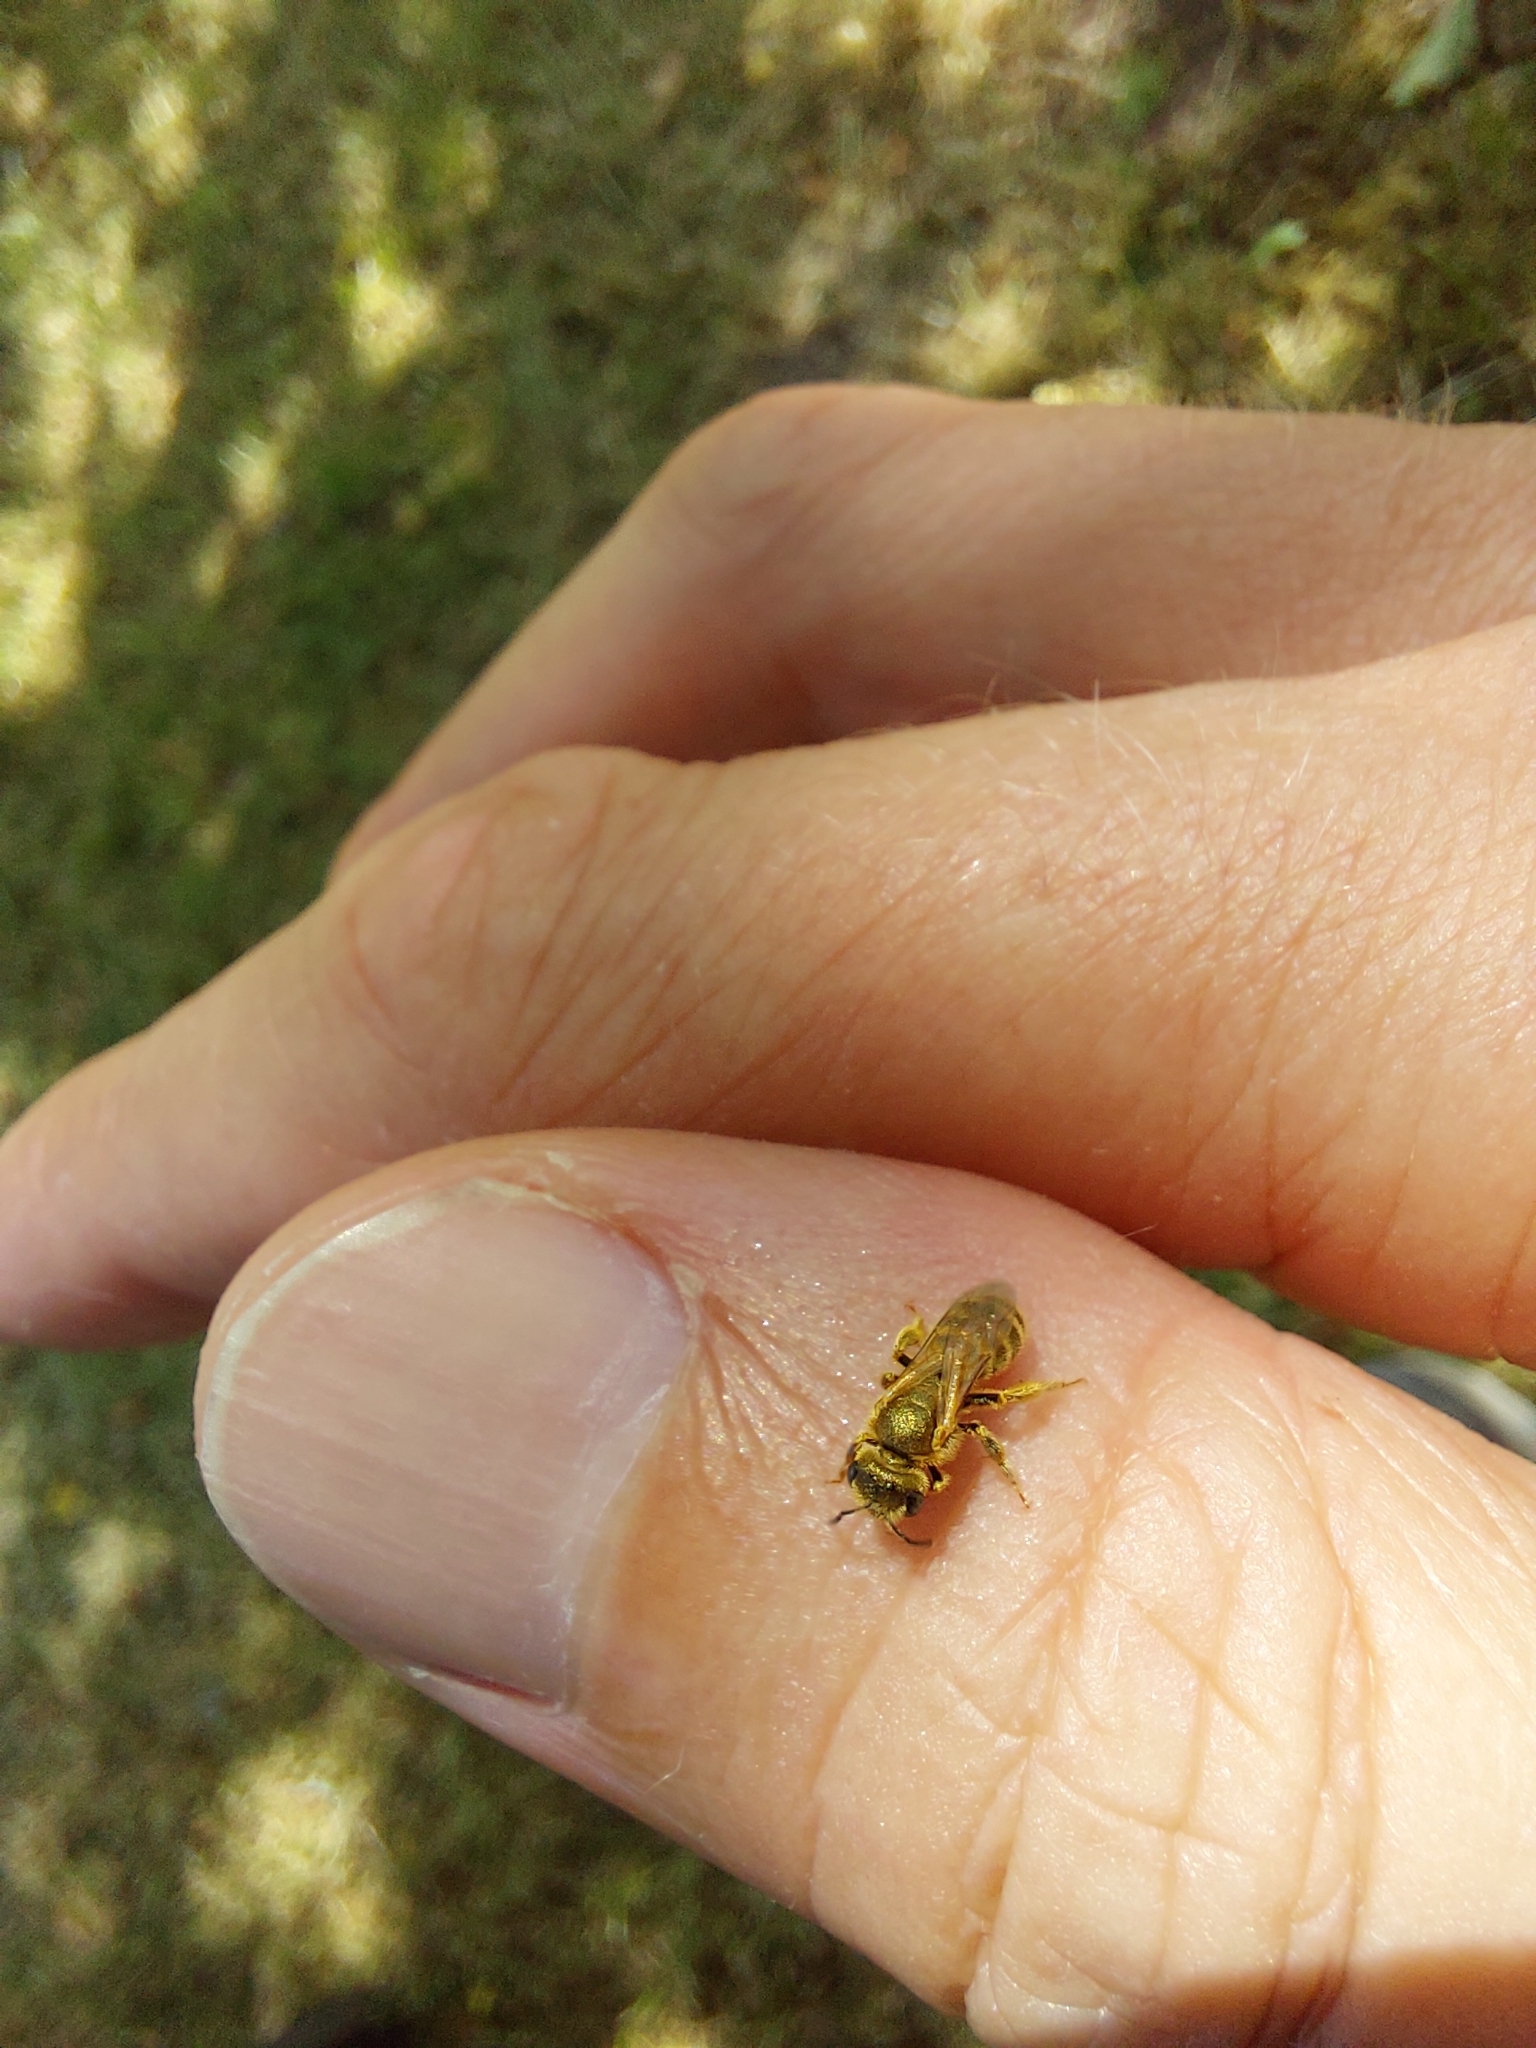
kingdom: Animalia
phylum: Arthropoda
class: Insecta
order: Hymenoptera
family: Halictidae
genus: Halictus
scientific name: Halictus subauratus
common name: Golden furrow bee
